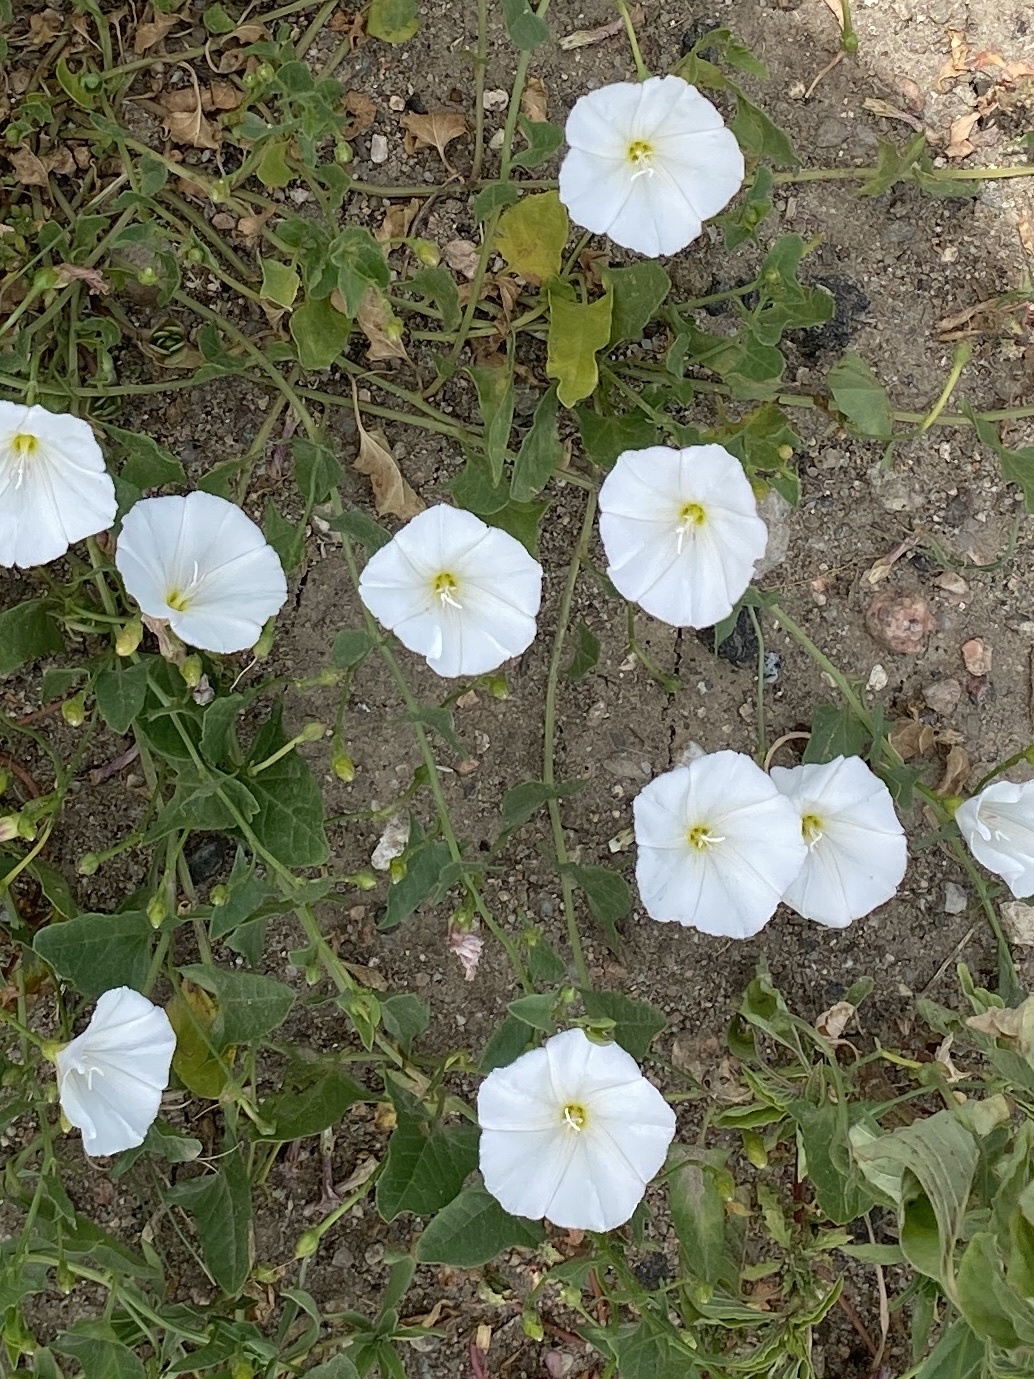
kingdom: Plantae
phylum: Tracheophyta
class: Magnoliopsida
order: Solanales
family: Convolvulaceae
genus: Convolvulus
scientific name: Convolvulus arvensis
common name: Field bindweed
